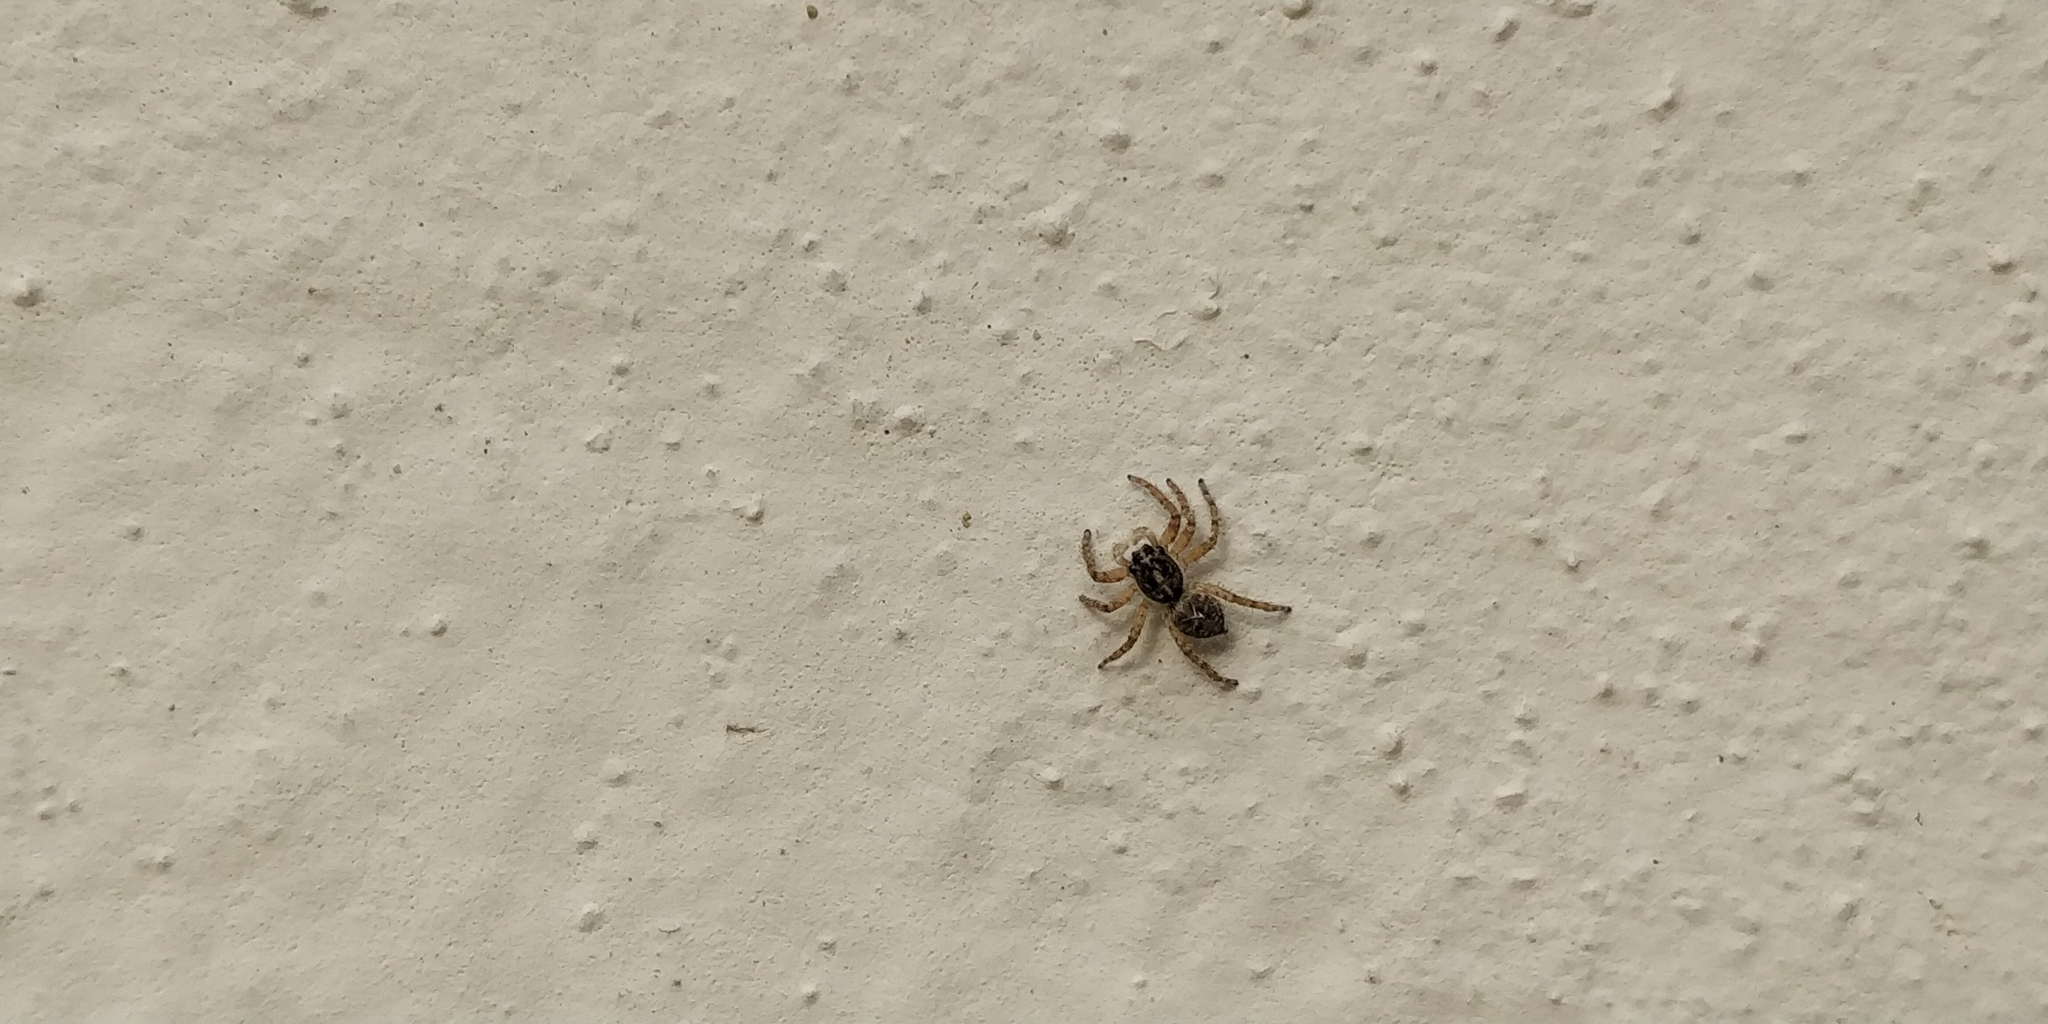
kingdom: Animalia
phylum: Arthropoda
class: Arachnida
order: Araneae
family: Salticidae
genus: Menemerus
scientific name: Menemerus semilimbatus
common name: Jumping spider
